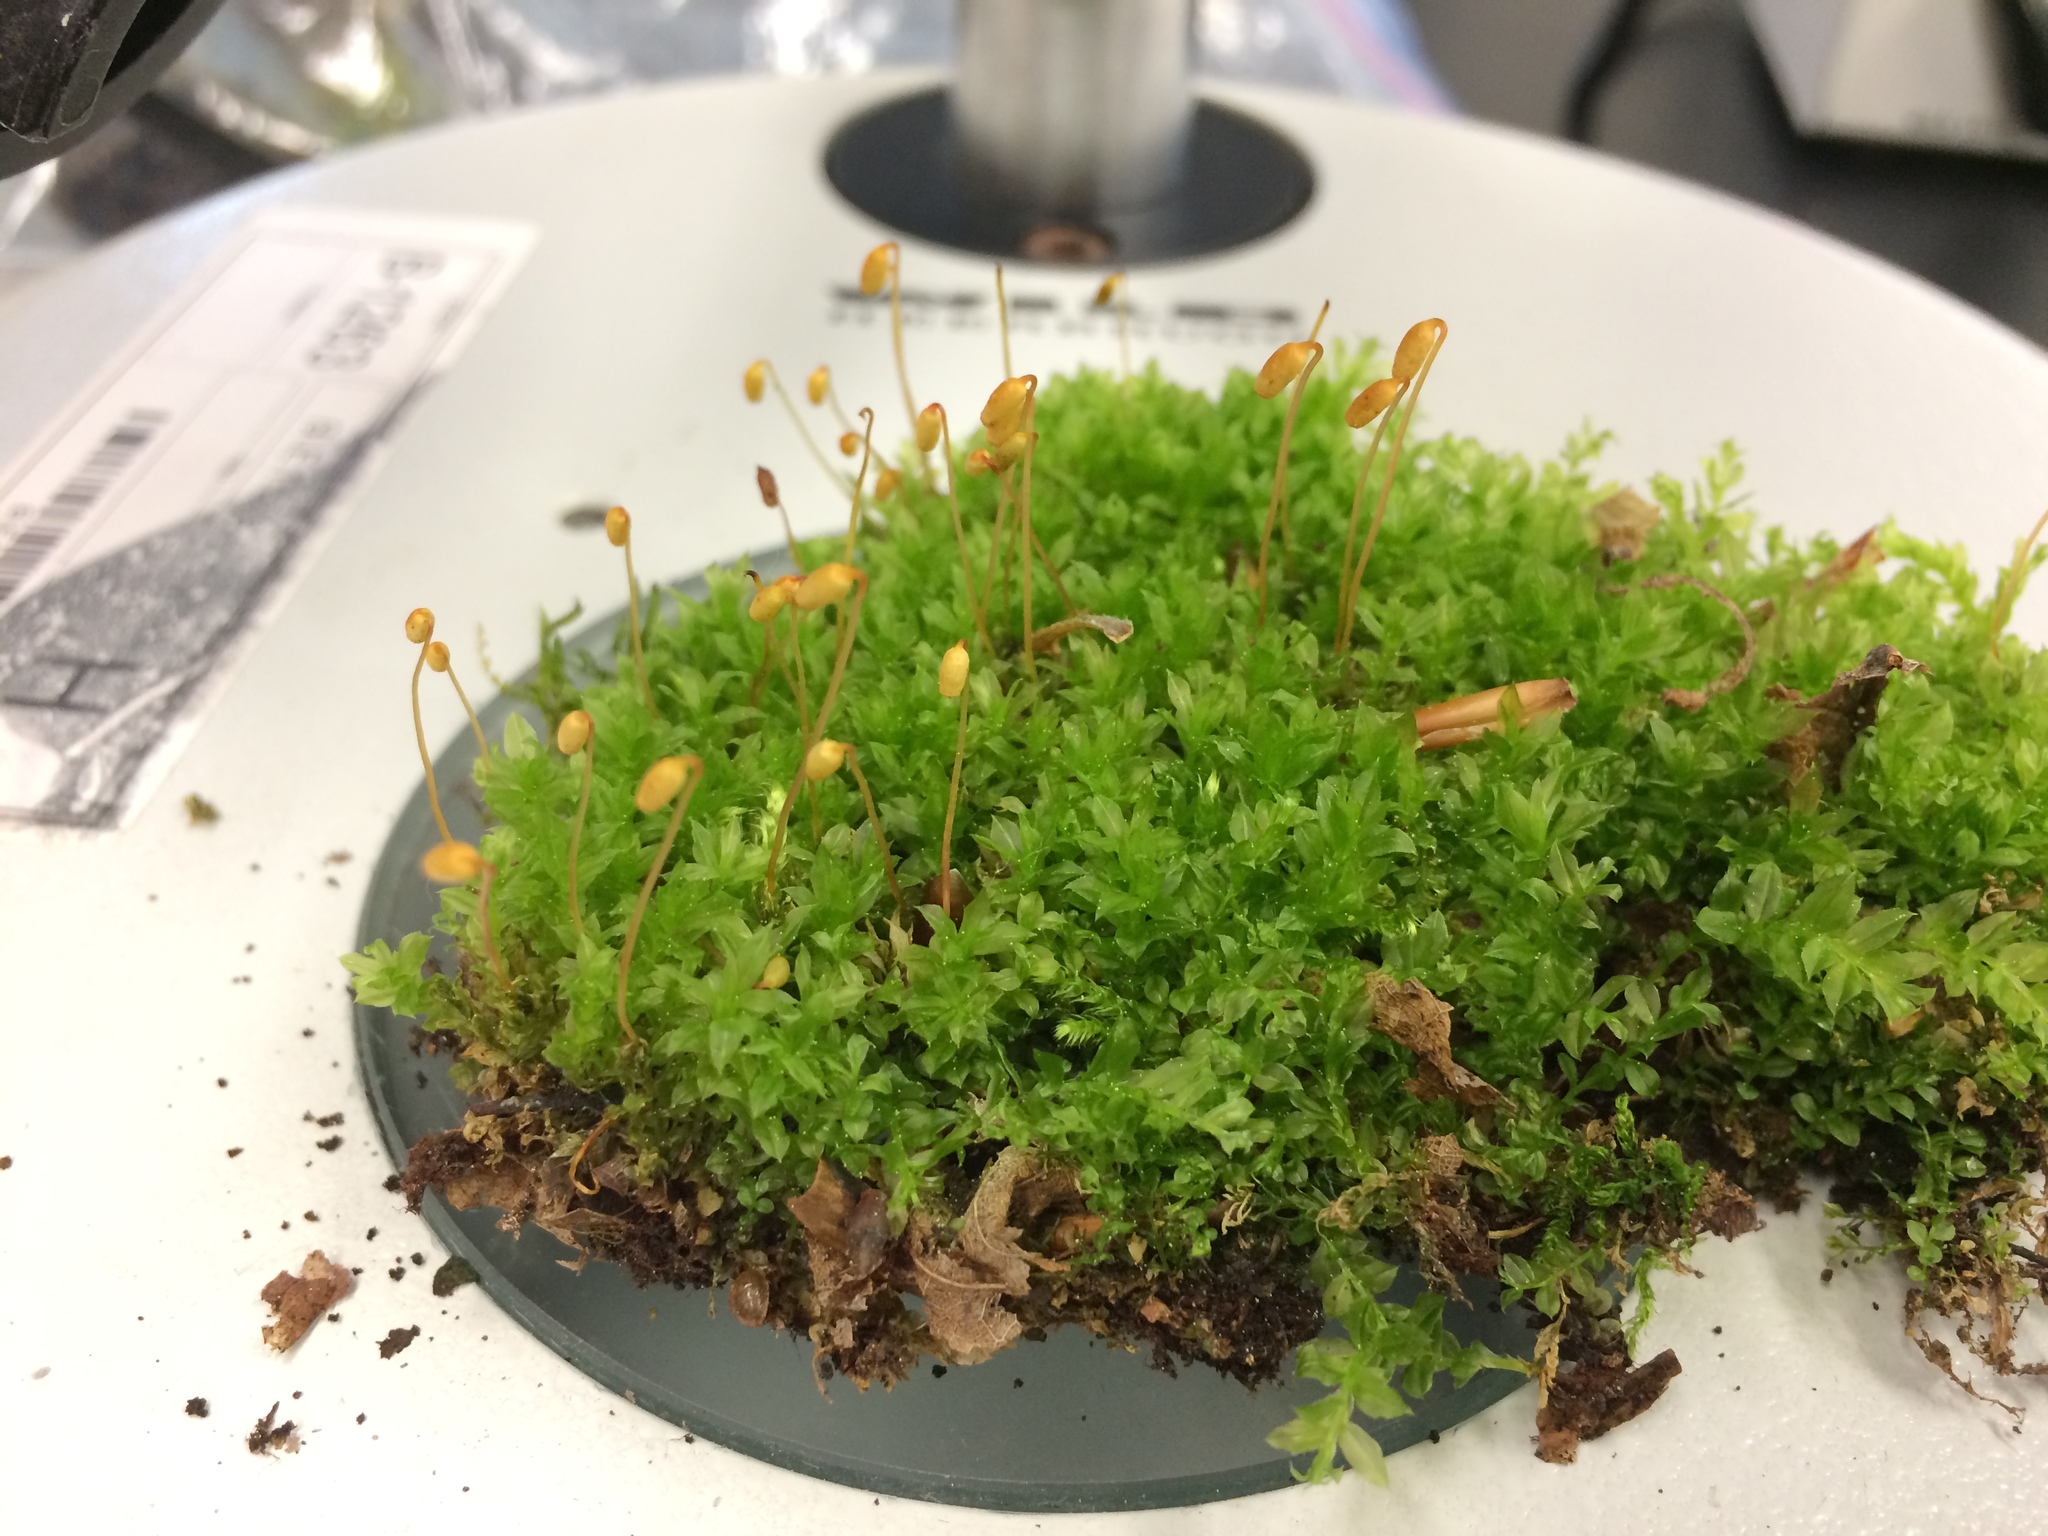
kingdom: Plantae
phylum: Bryophyta
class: Bryopsida
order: Bryales
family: Mniaceae
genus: Plagiomnium
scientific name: Plagiomnium cuspidatum
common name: Woodsy leafy moss
